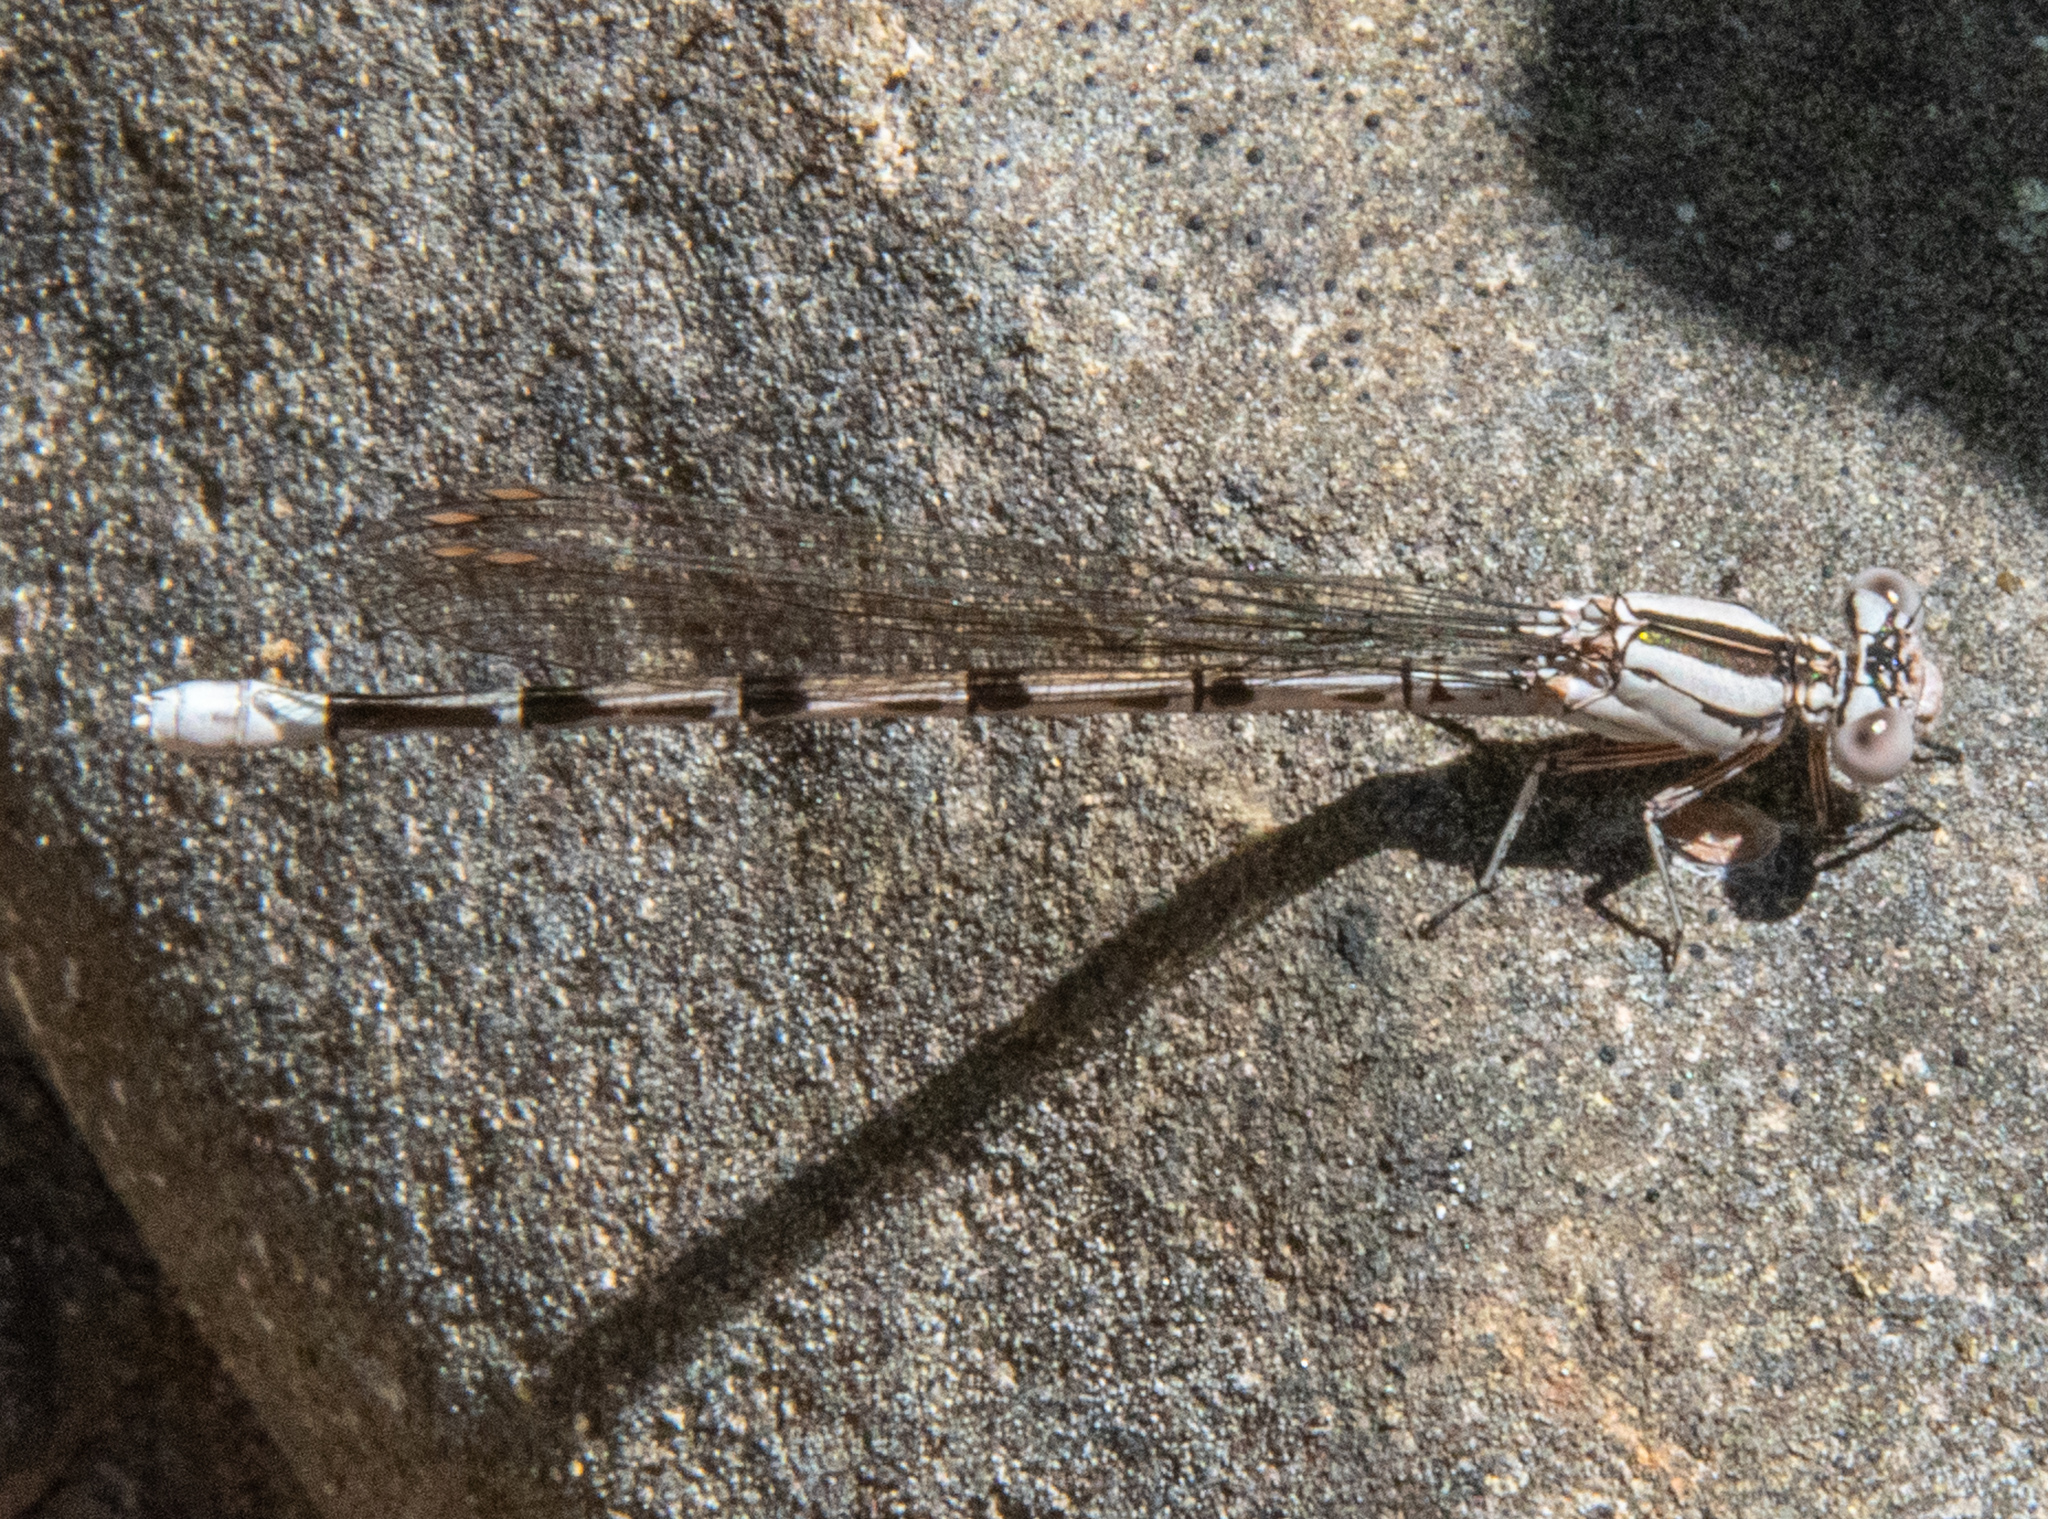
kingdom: Animalia
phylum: Arthropoda
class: Insecta
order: Odonata
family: Coenagrionidae
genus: Argia
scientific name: Argia vivida
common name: Vivid dancer
